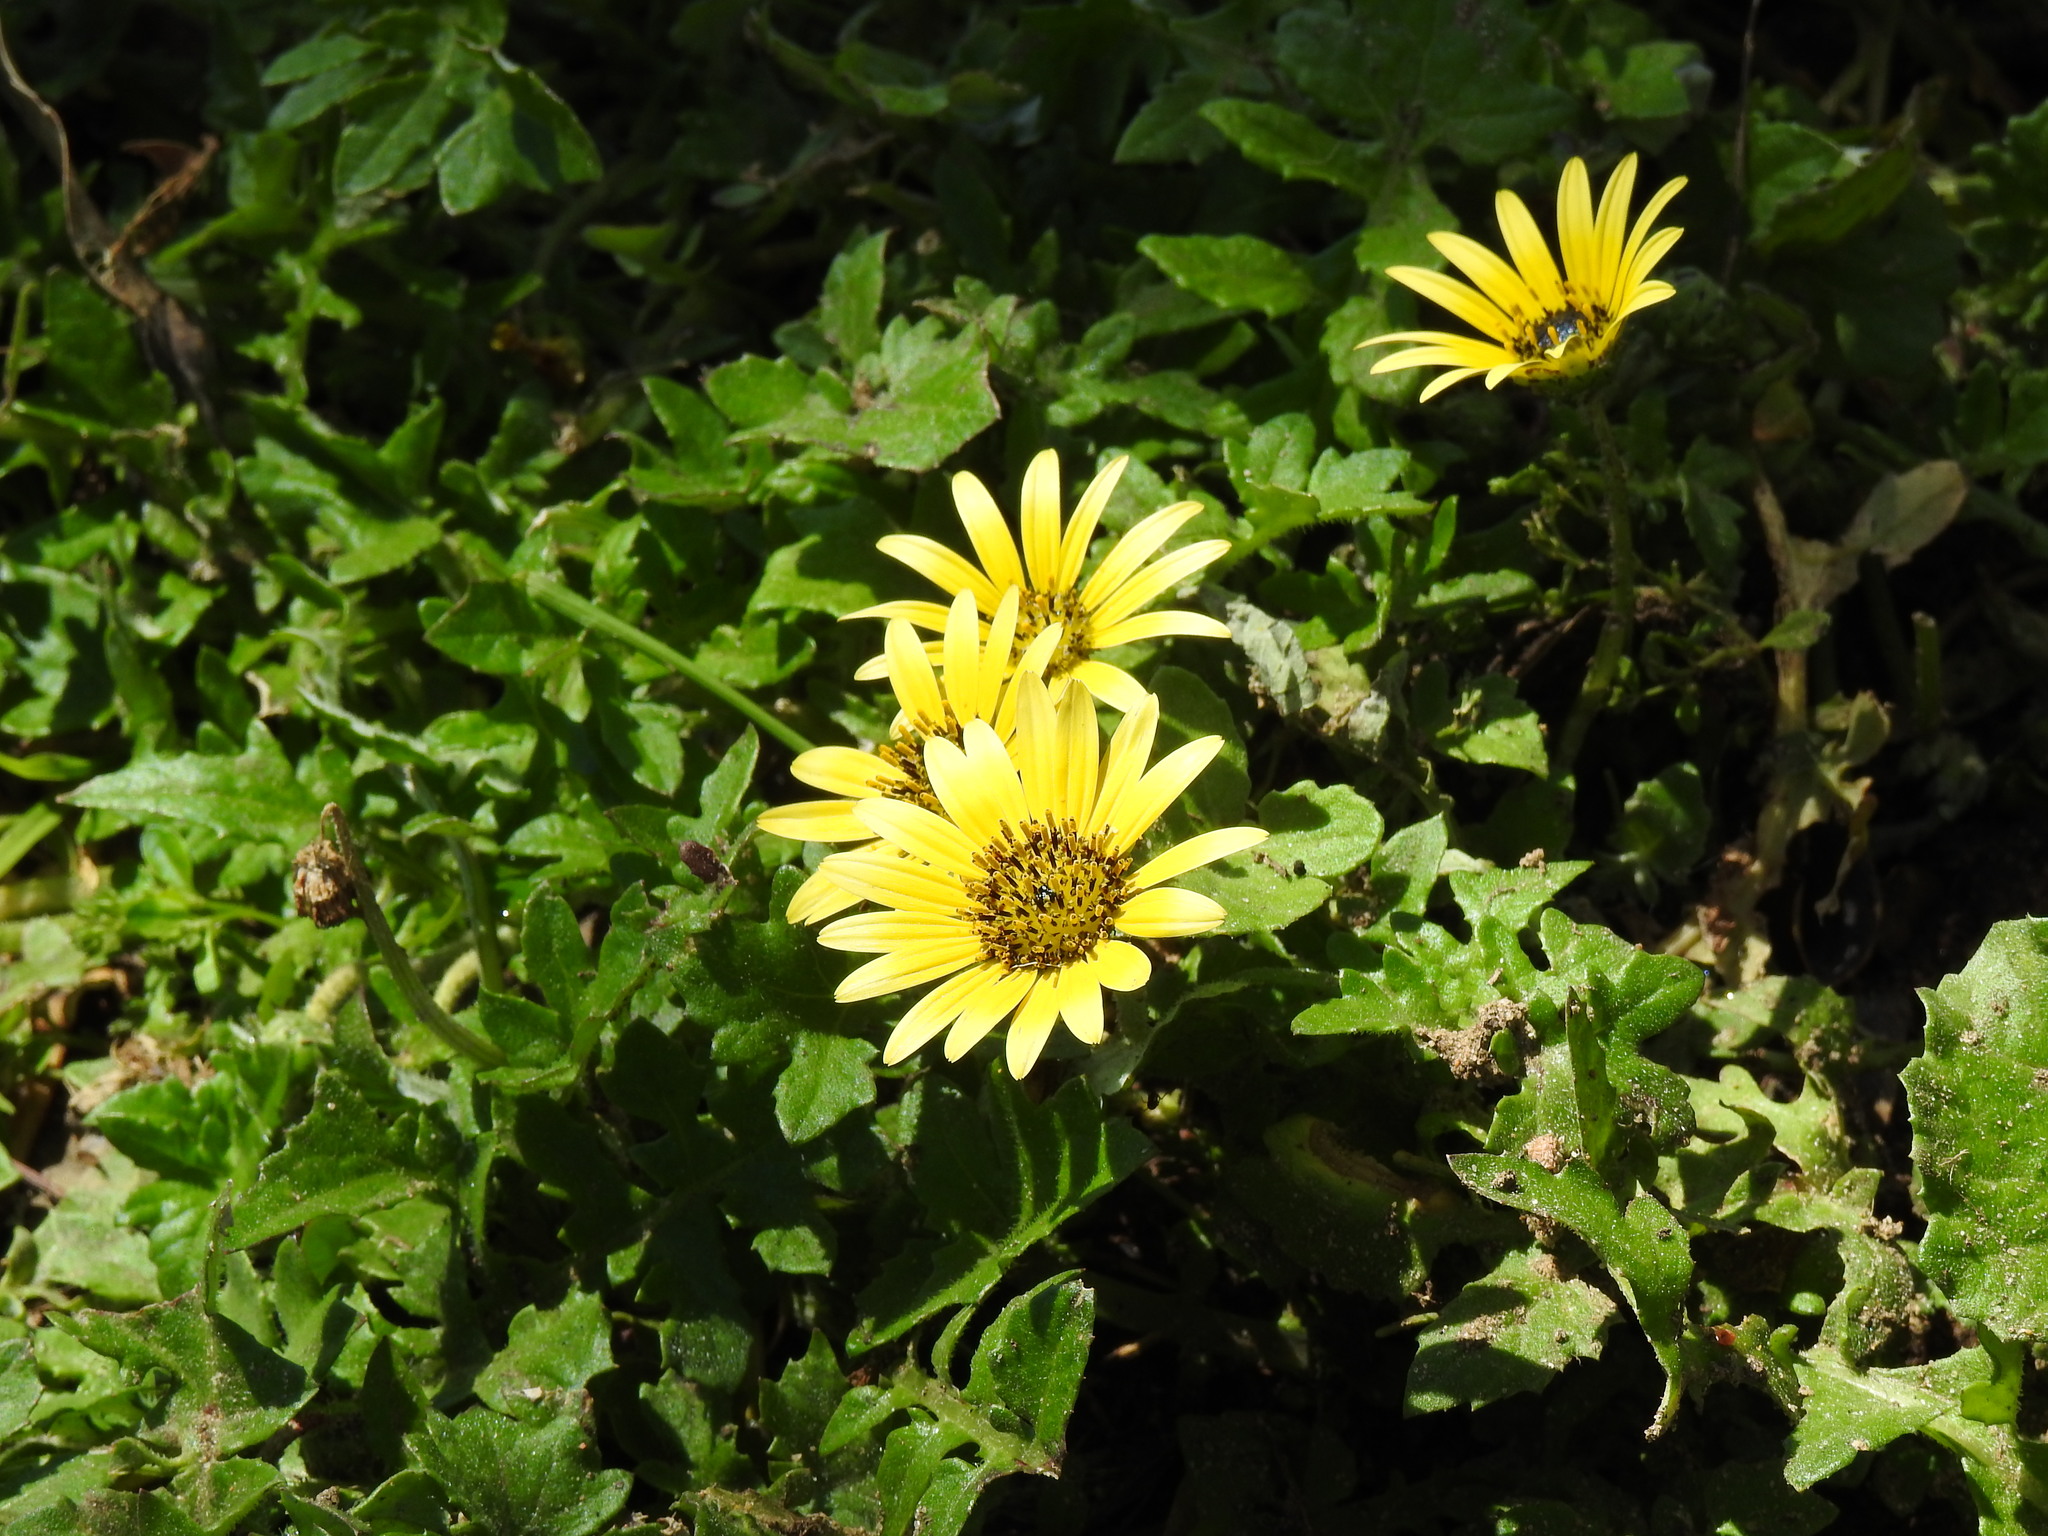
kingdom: Plantae
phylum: Tracheophyta
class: Magnoliopsida
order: Asterales
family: Asteraceae
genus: Arctotheca
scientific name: Arctotheca calendula
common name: Capeweed
